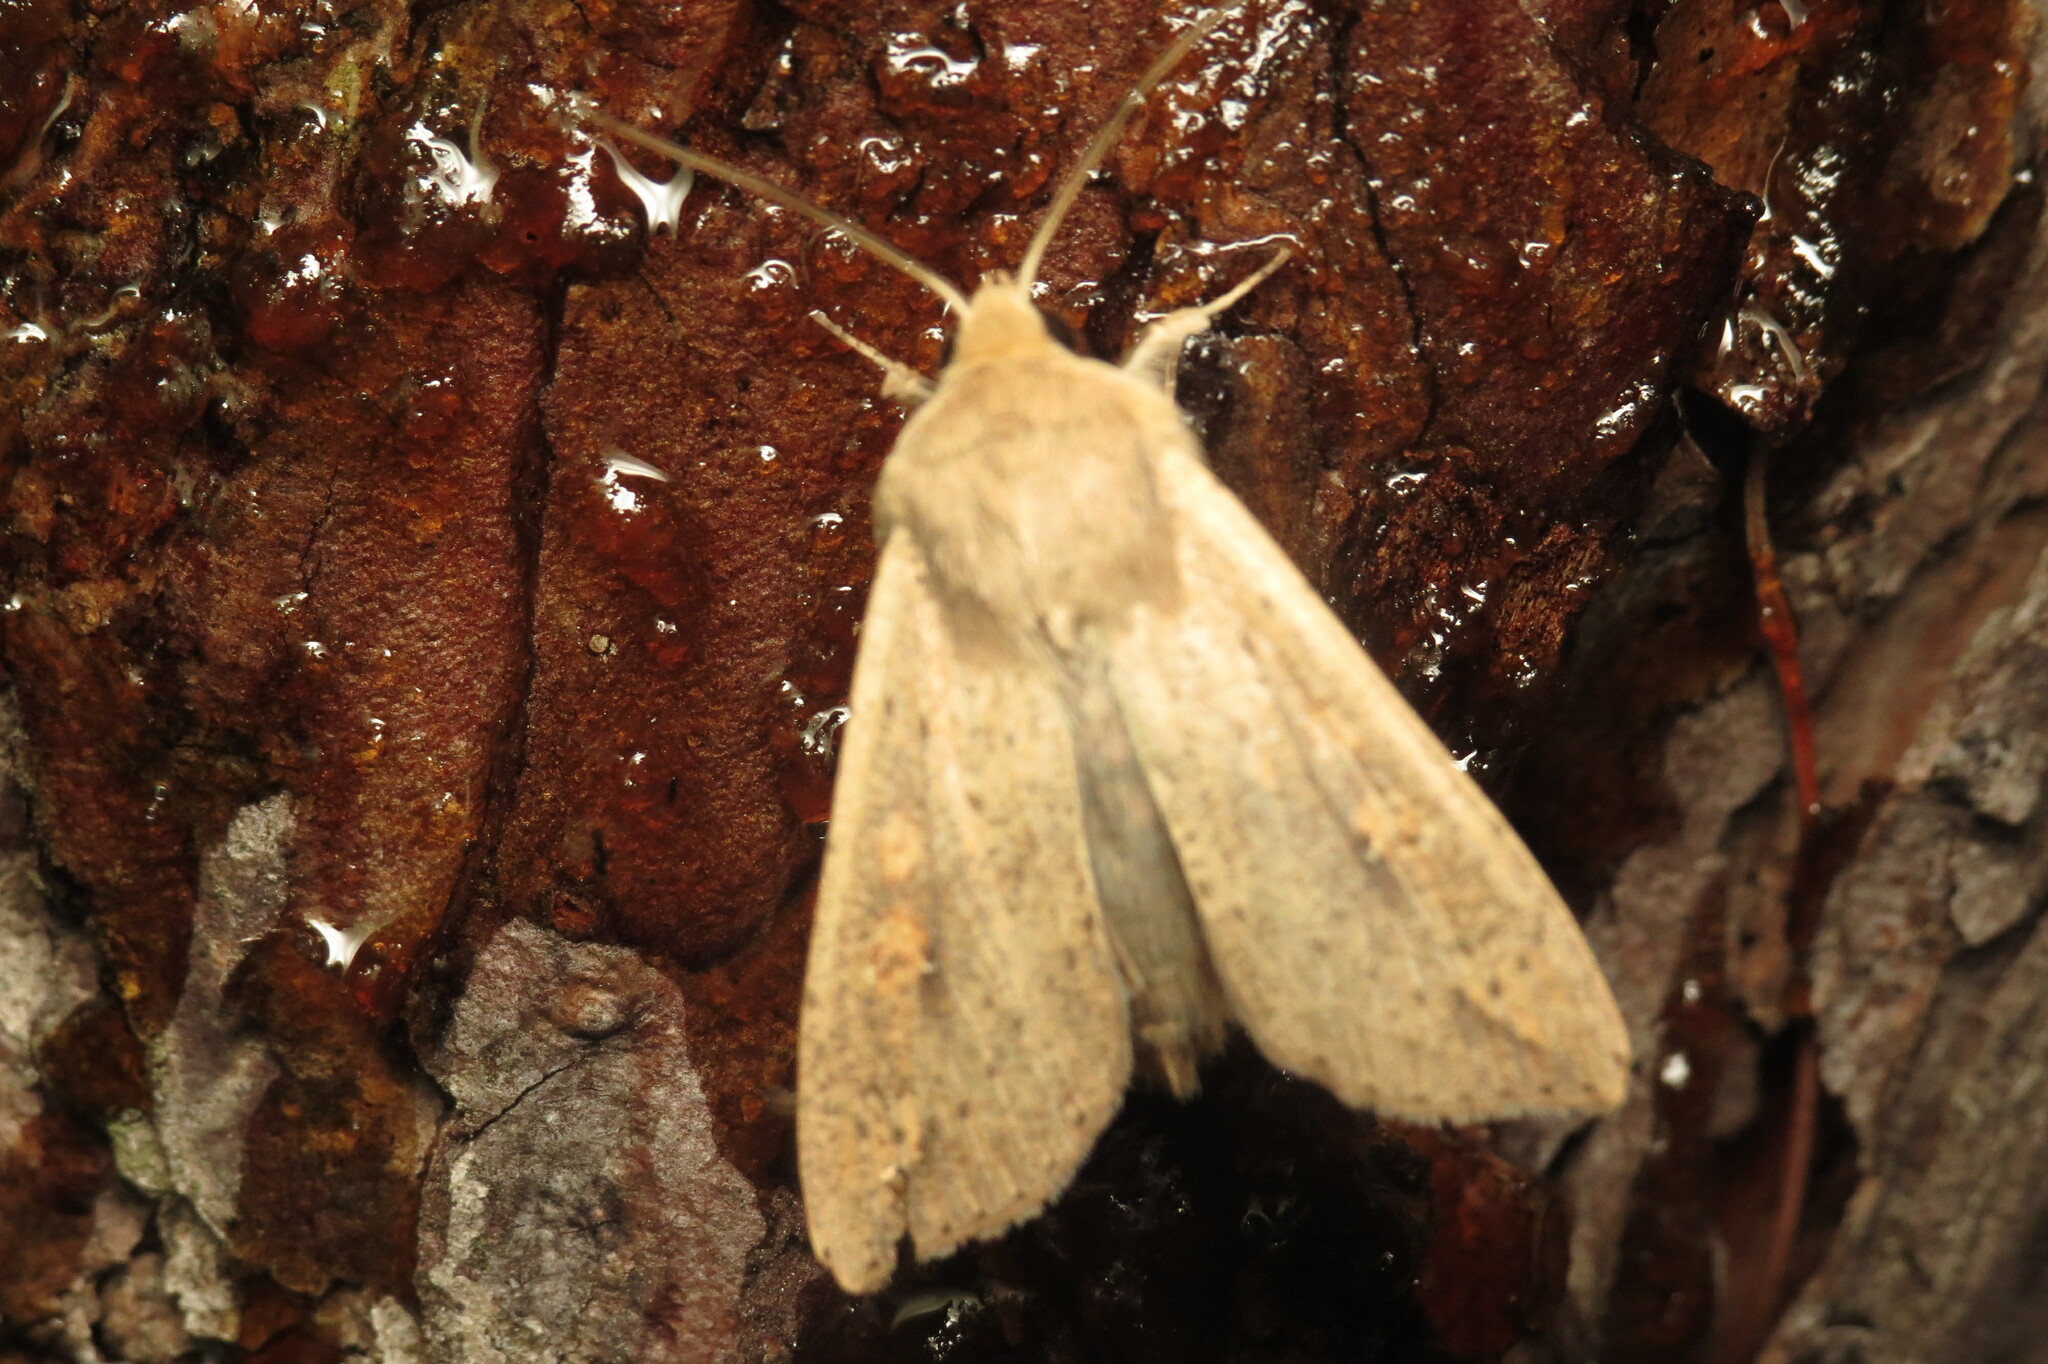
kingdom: Animalia
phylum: Arthropoda
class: Insecta
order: Lepidoptera
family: Noctuidae
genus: Mythimna
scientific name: Mythimna unipuncta
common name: White-speck
